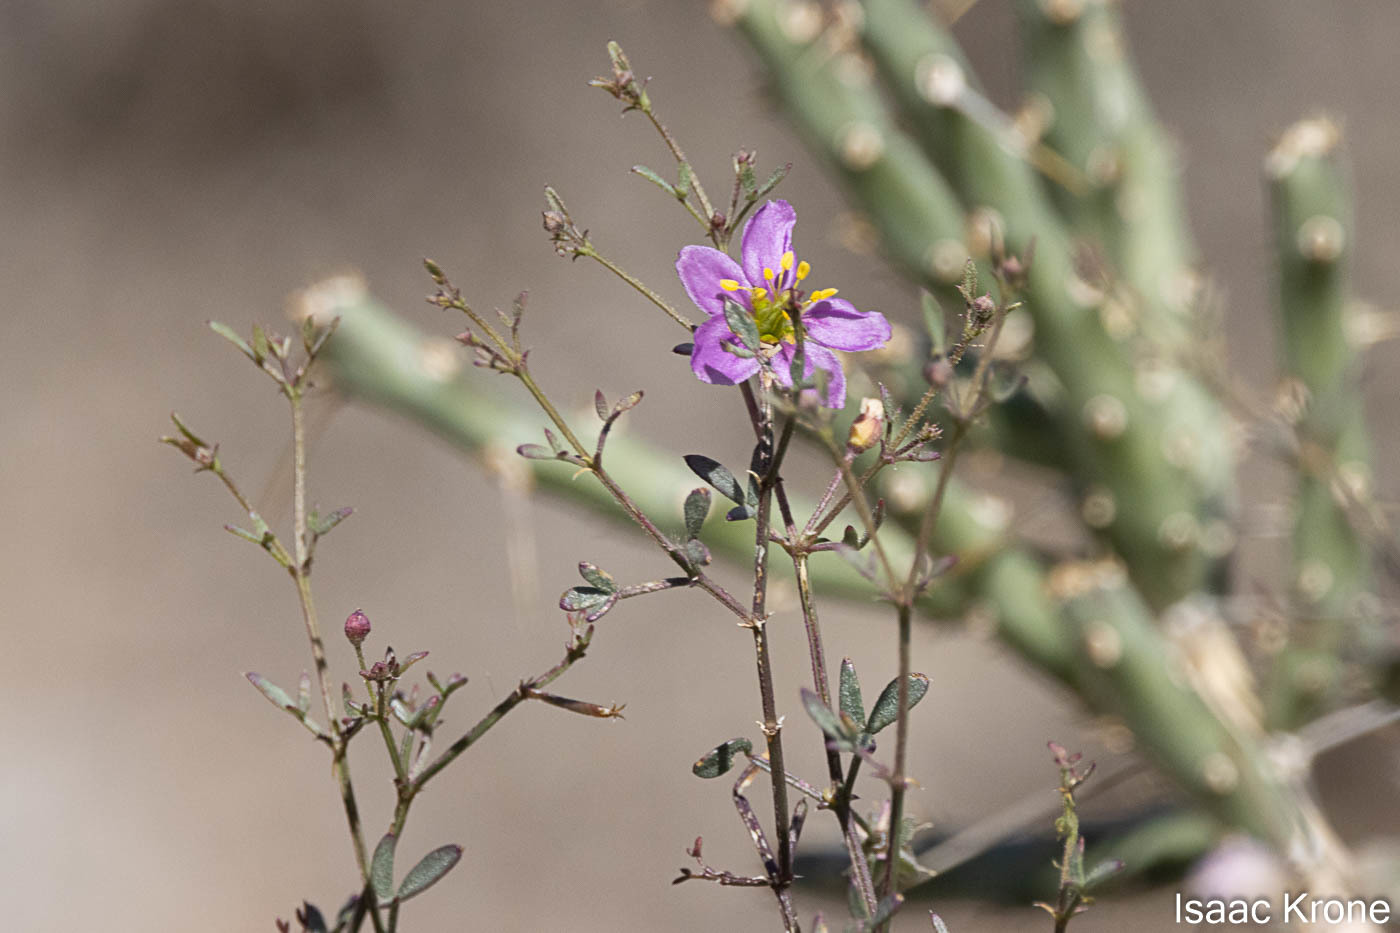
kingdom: Plantae
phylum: Tracheophyta
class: Magnoliopsida
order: Zygophyllales
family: Zygophyllaceae
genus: Fagonia
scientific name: Fagonia laevis
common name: California fagonbush
